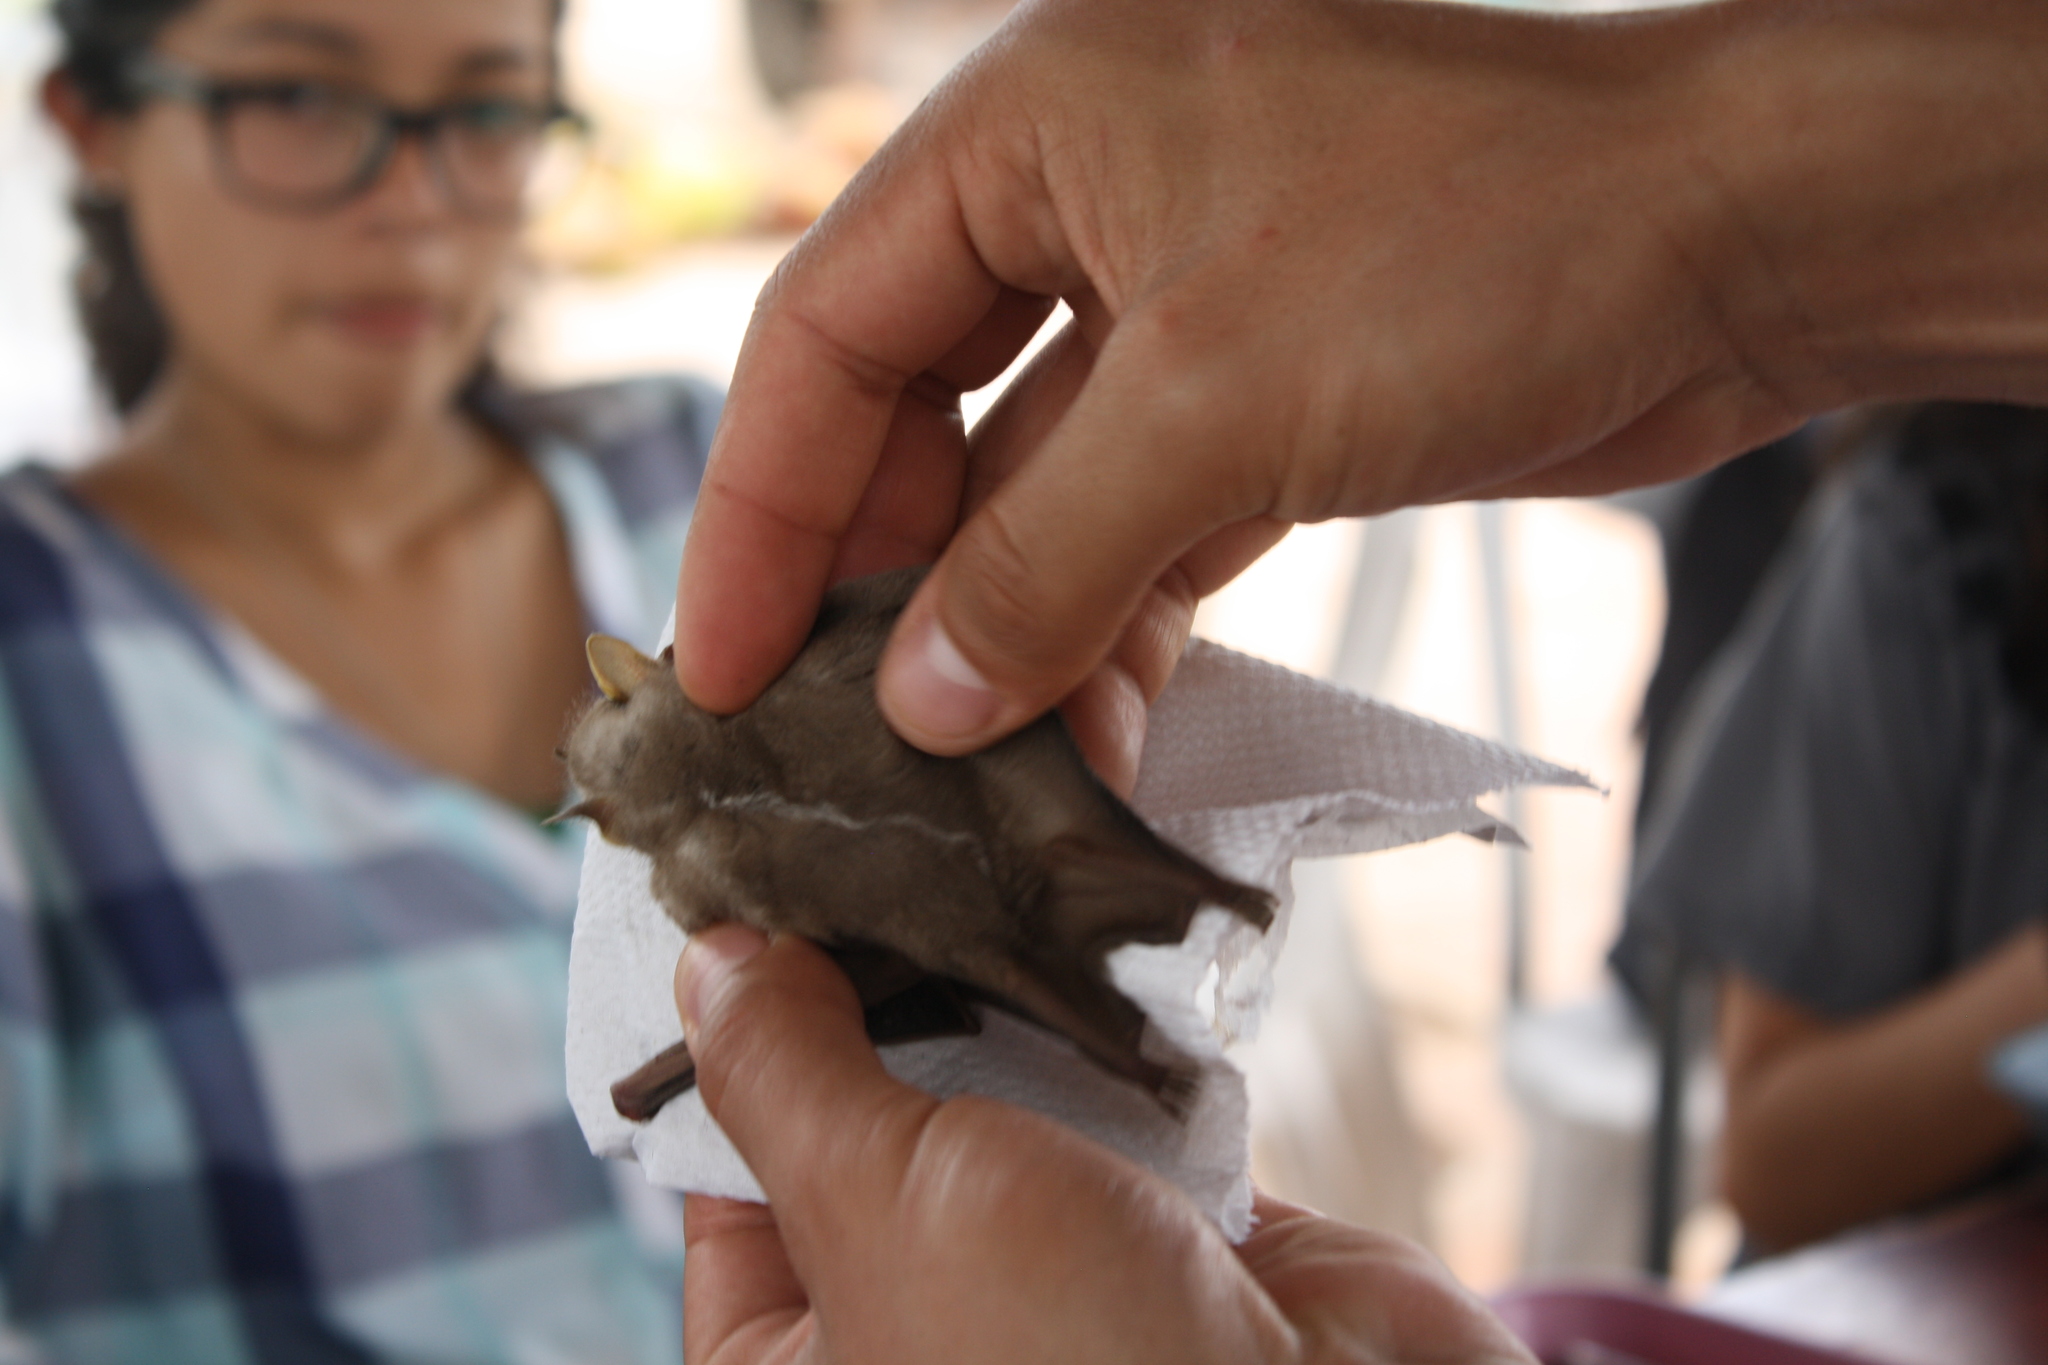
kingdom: Animalia
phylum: Chordata
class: Mammalia
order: Chiroptera
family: Phyllostomidae
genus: Chiroderma
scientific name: Chiroderma scopaeum
